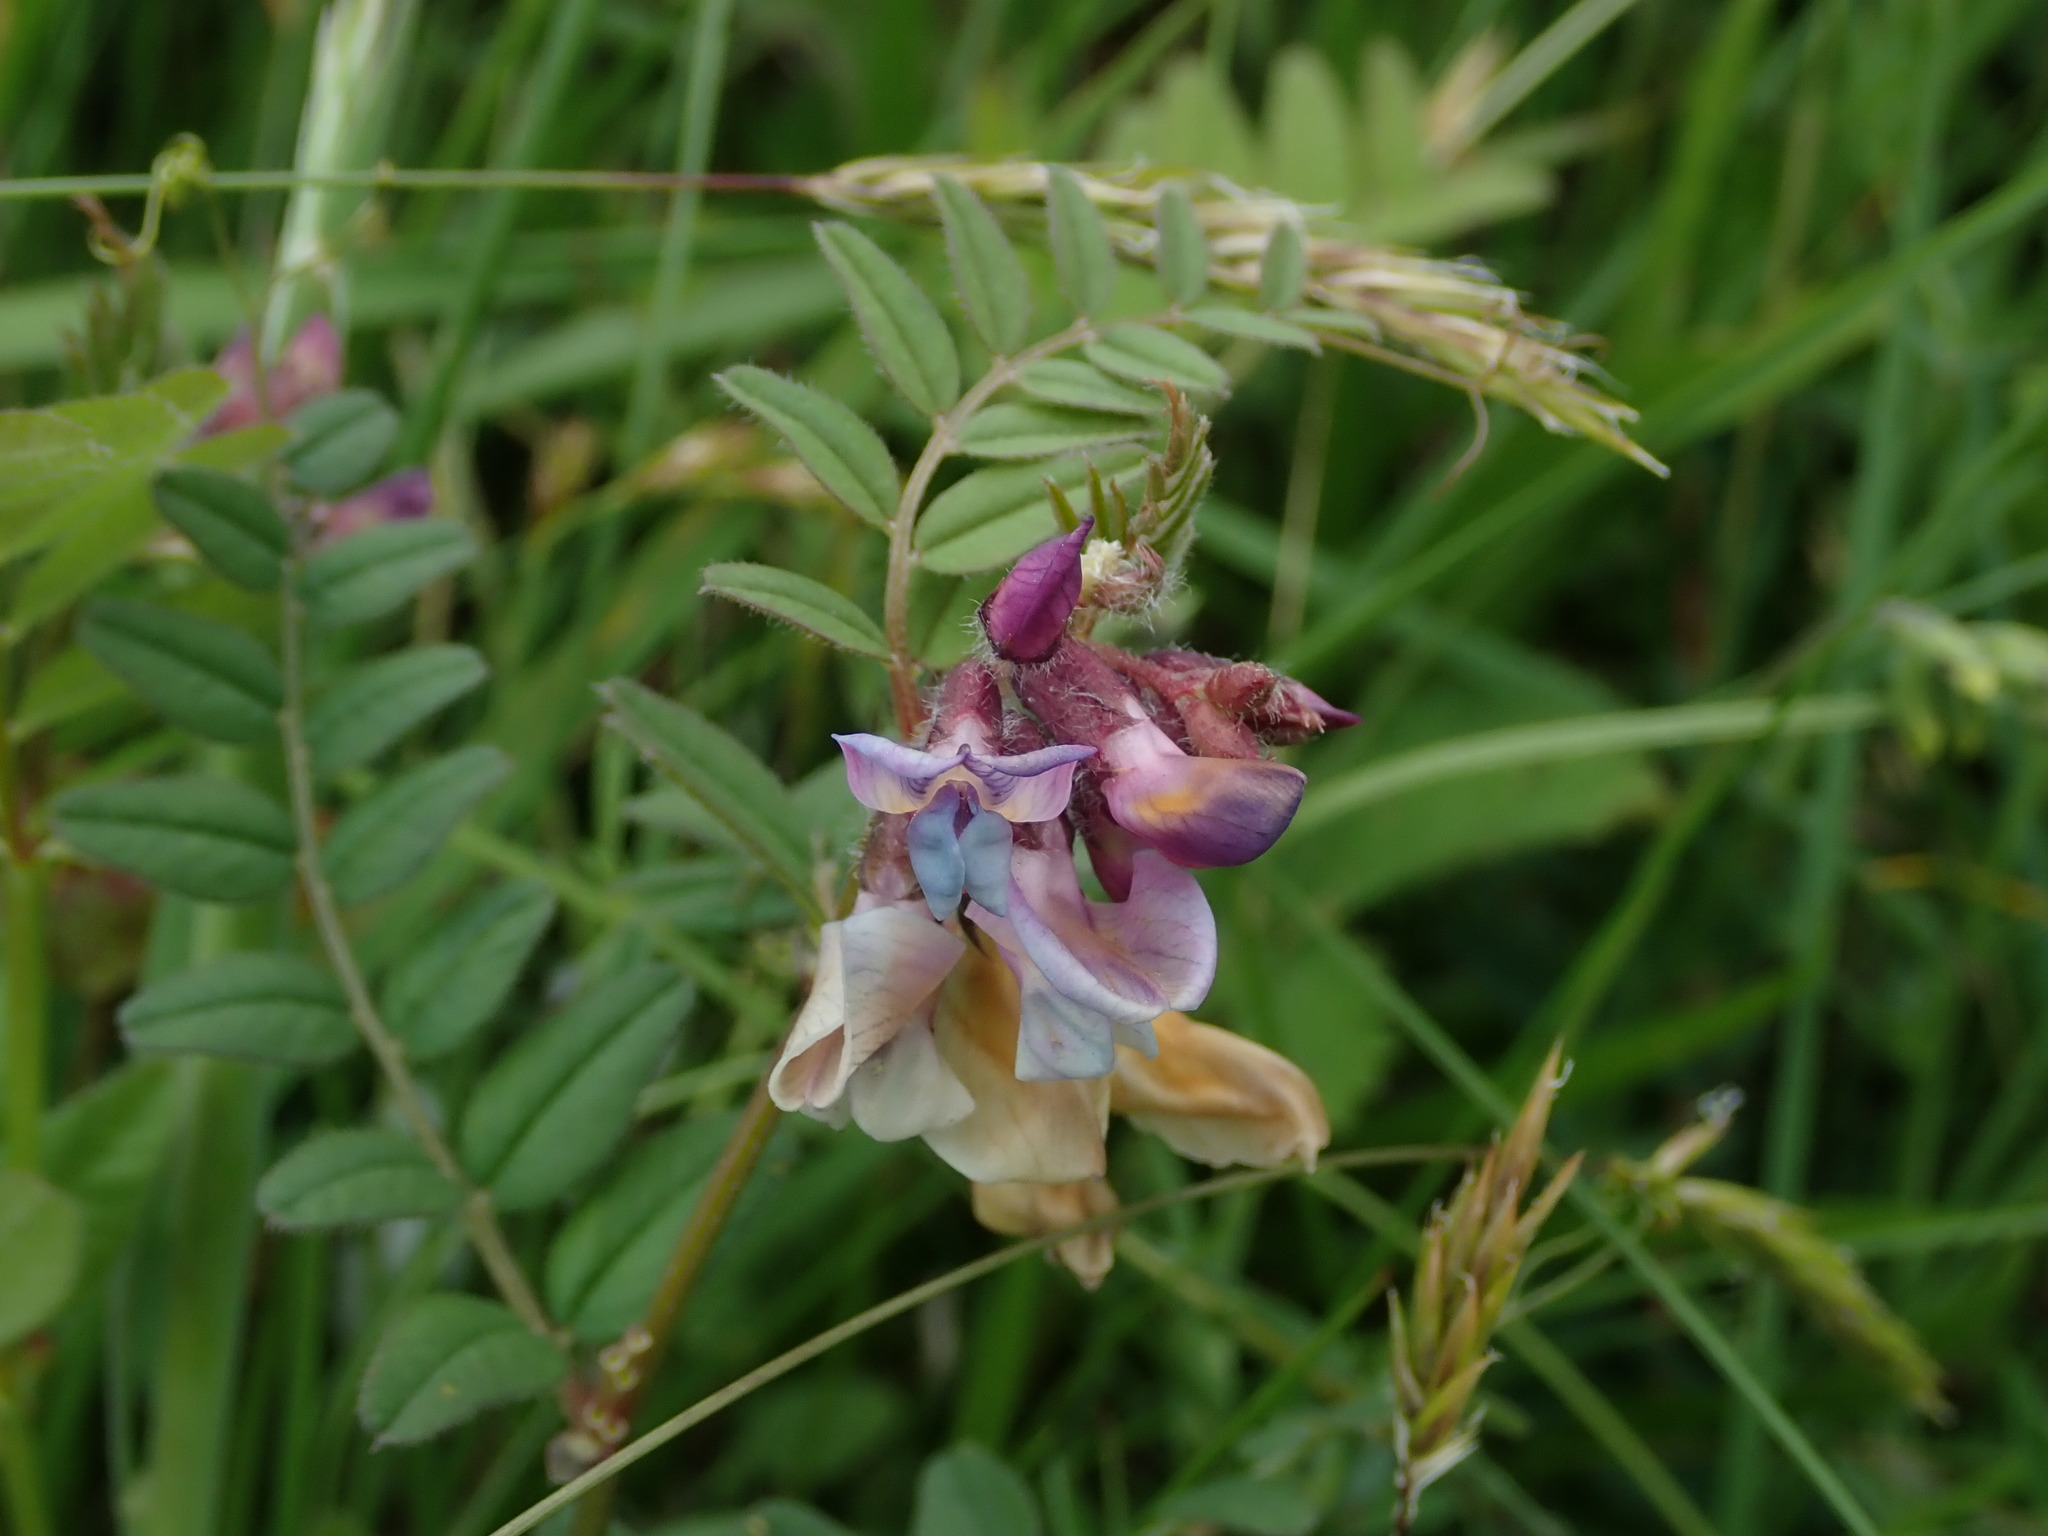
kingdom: Plantae
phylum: Tracheophyta
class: Magnoliopsida
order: Fabales
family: Fabaceae
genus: Vicia
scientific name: Vicia sepium
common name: Bush vetch
